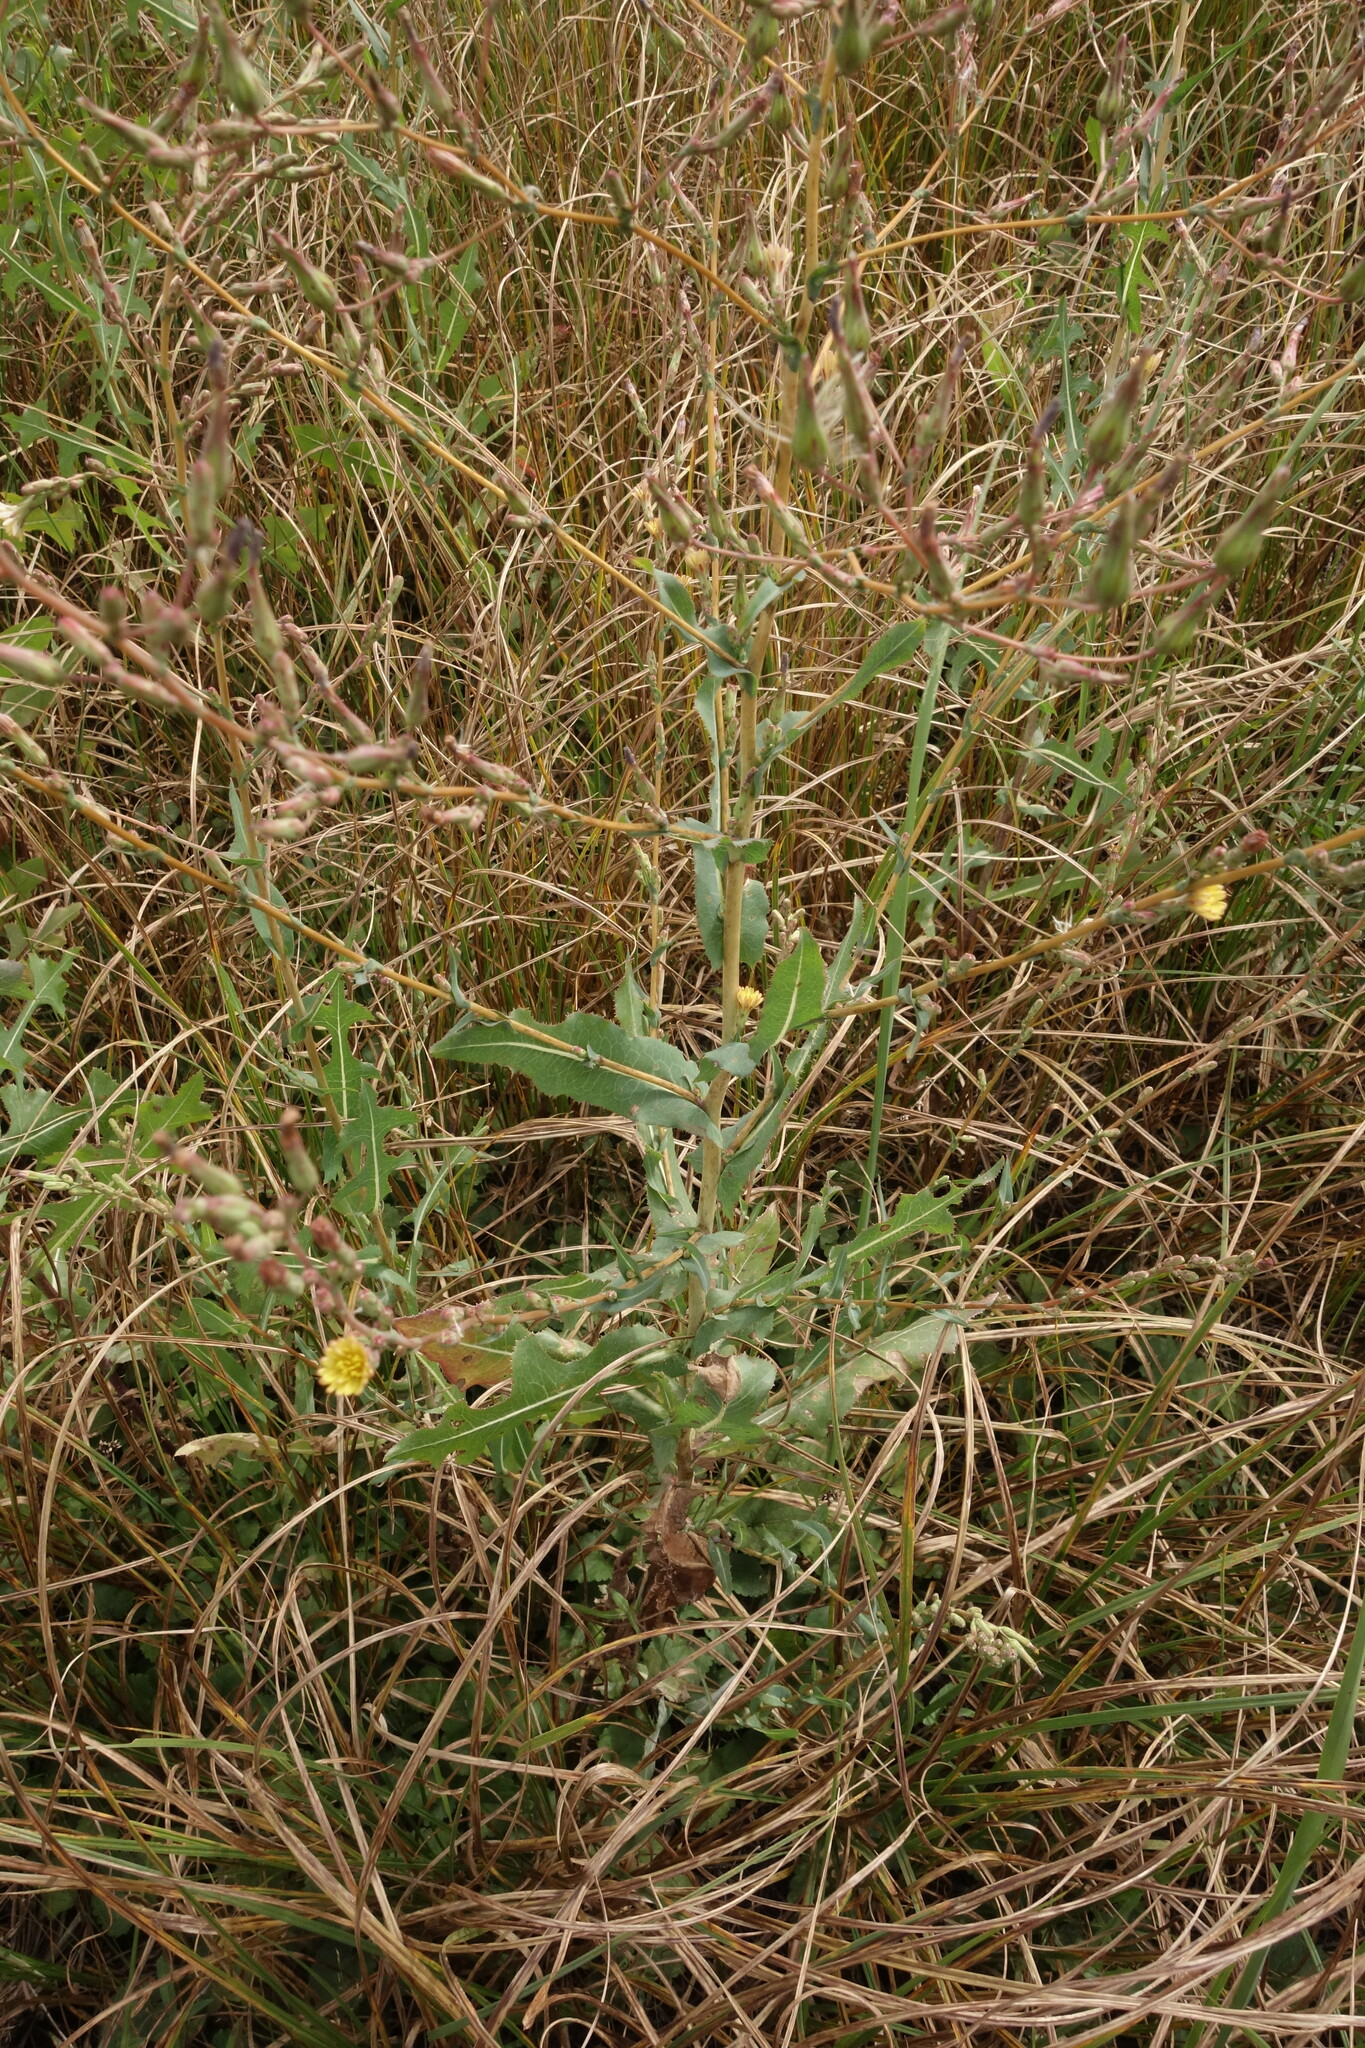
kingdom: Plantae
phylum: Tracheophyta
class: Magnoliopsida
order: Asterales
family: Asteraceae
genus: Lactuca
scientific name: Lactuca serriola
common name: Prickly lettuce
